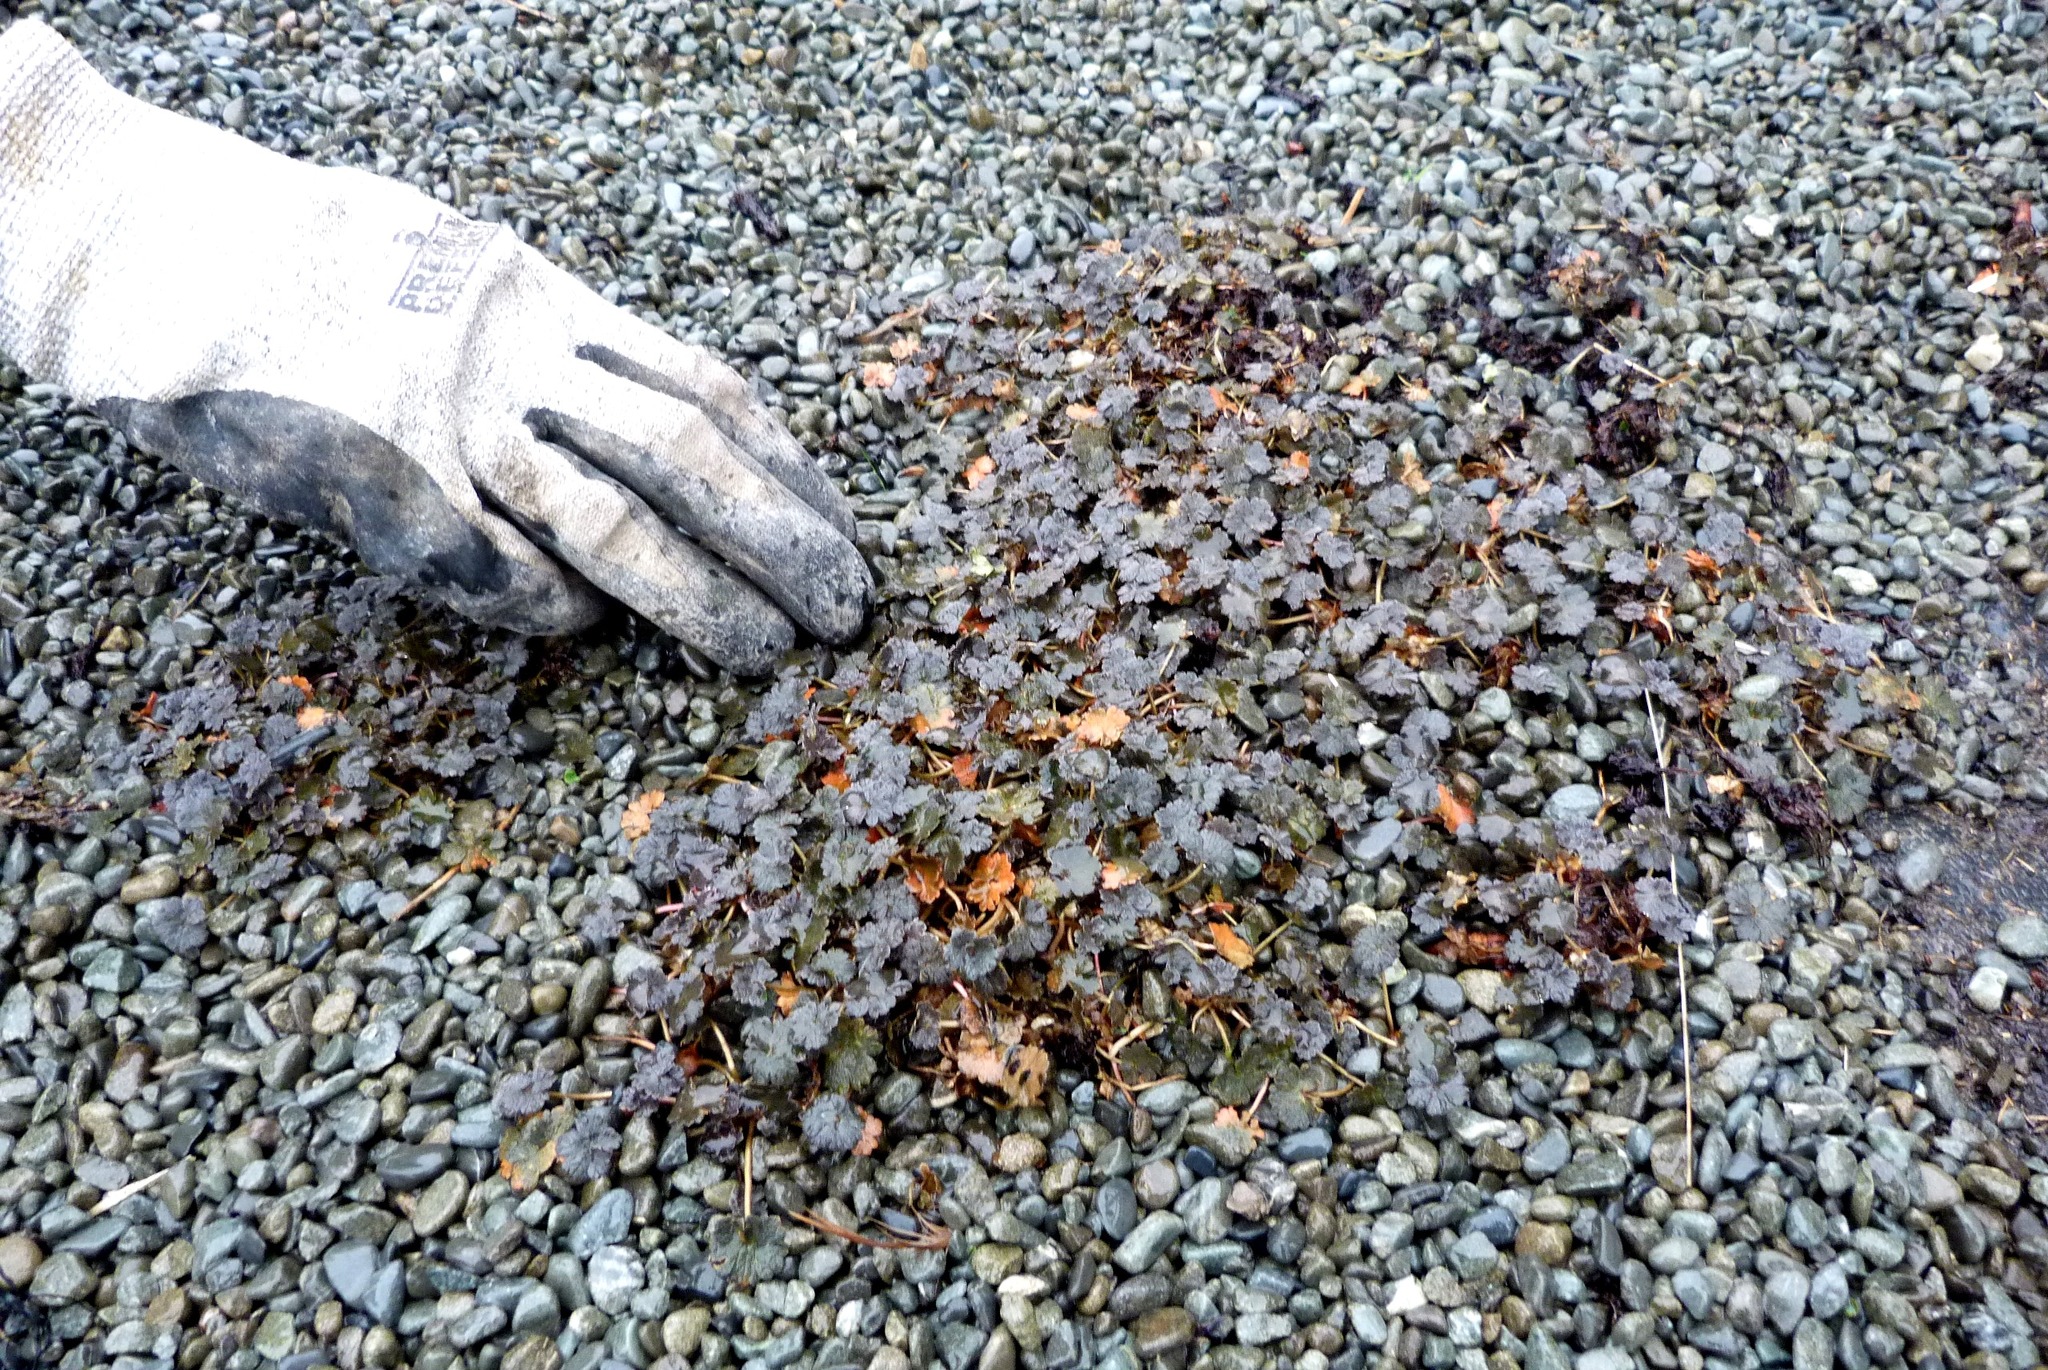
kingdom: Plantae
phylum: Tracheophyta
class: Magnoliopsida
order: Geraniales
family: Geraniaceae
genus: Geranium
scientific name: Geranium brevicaule
